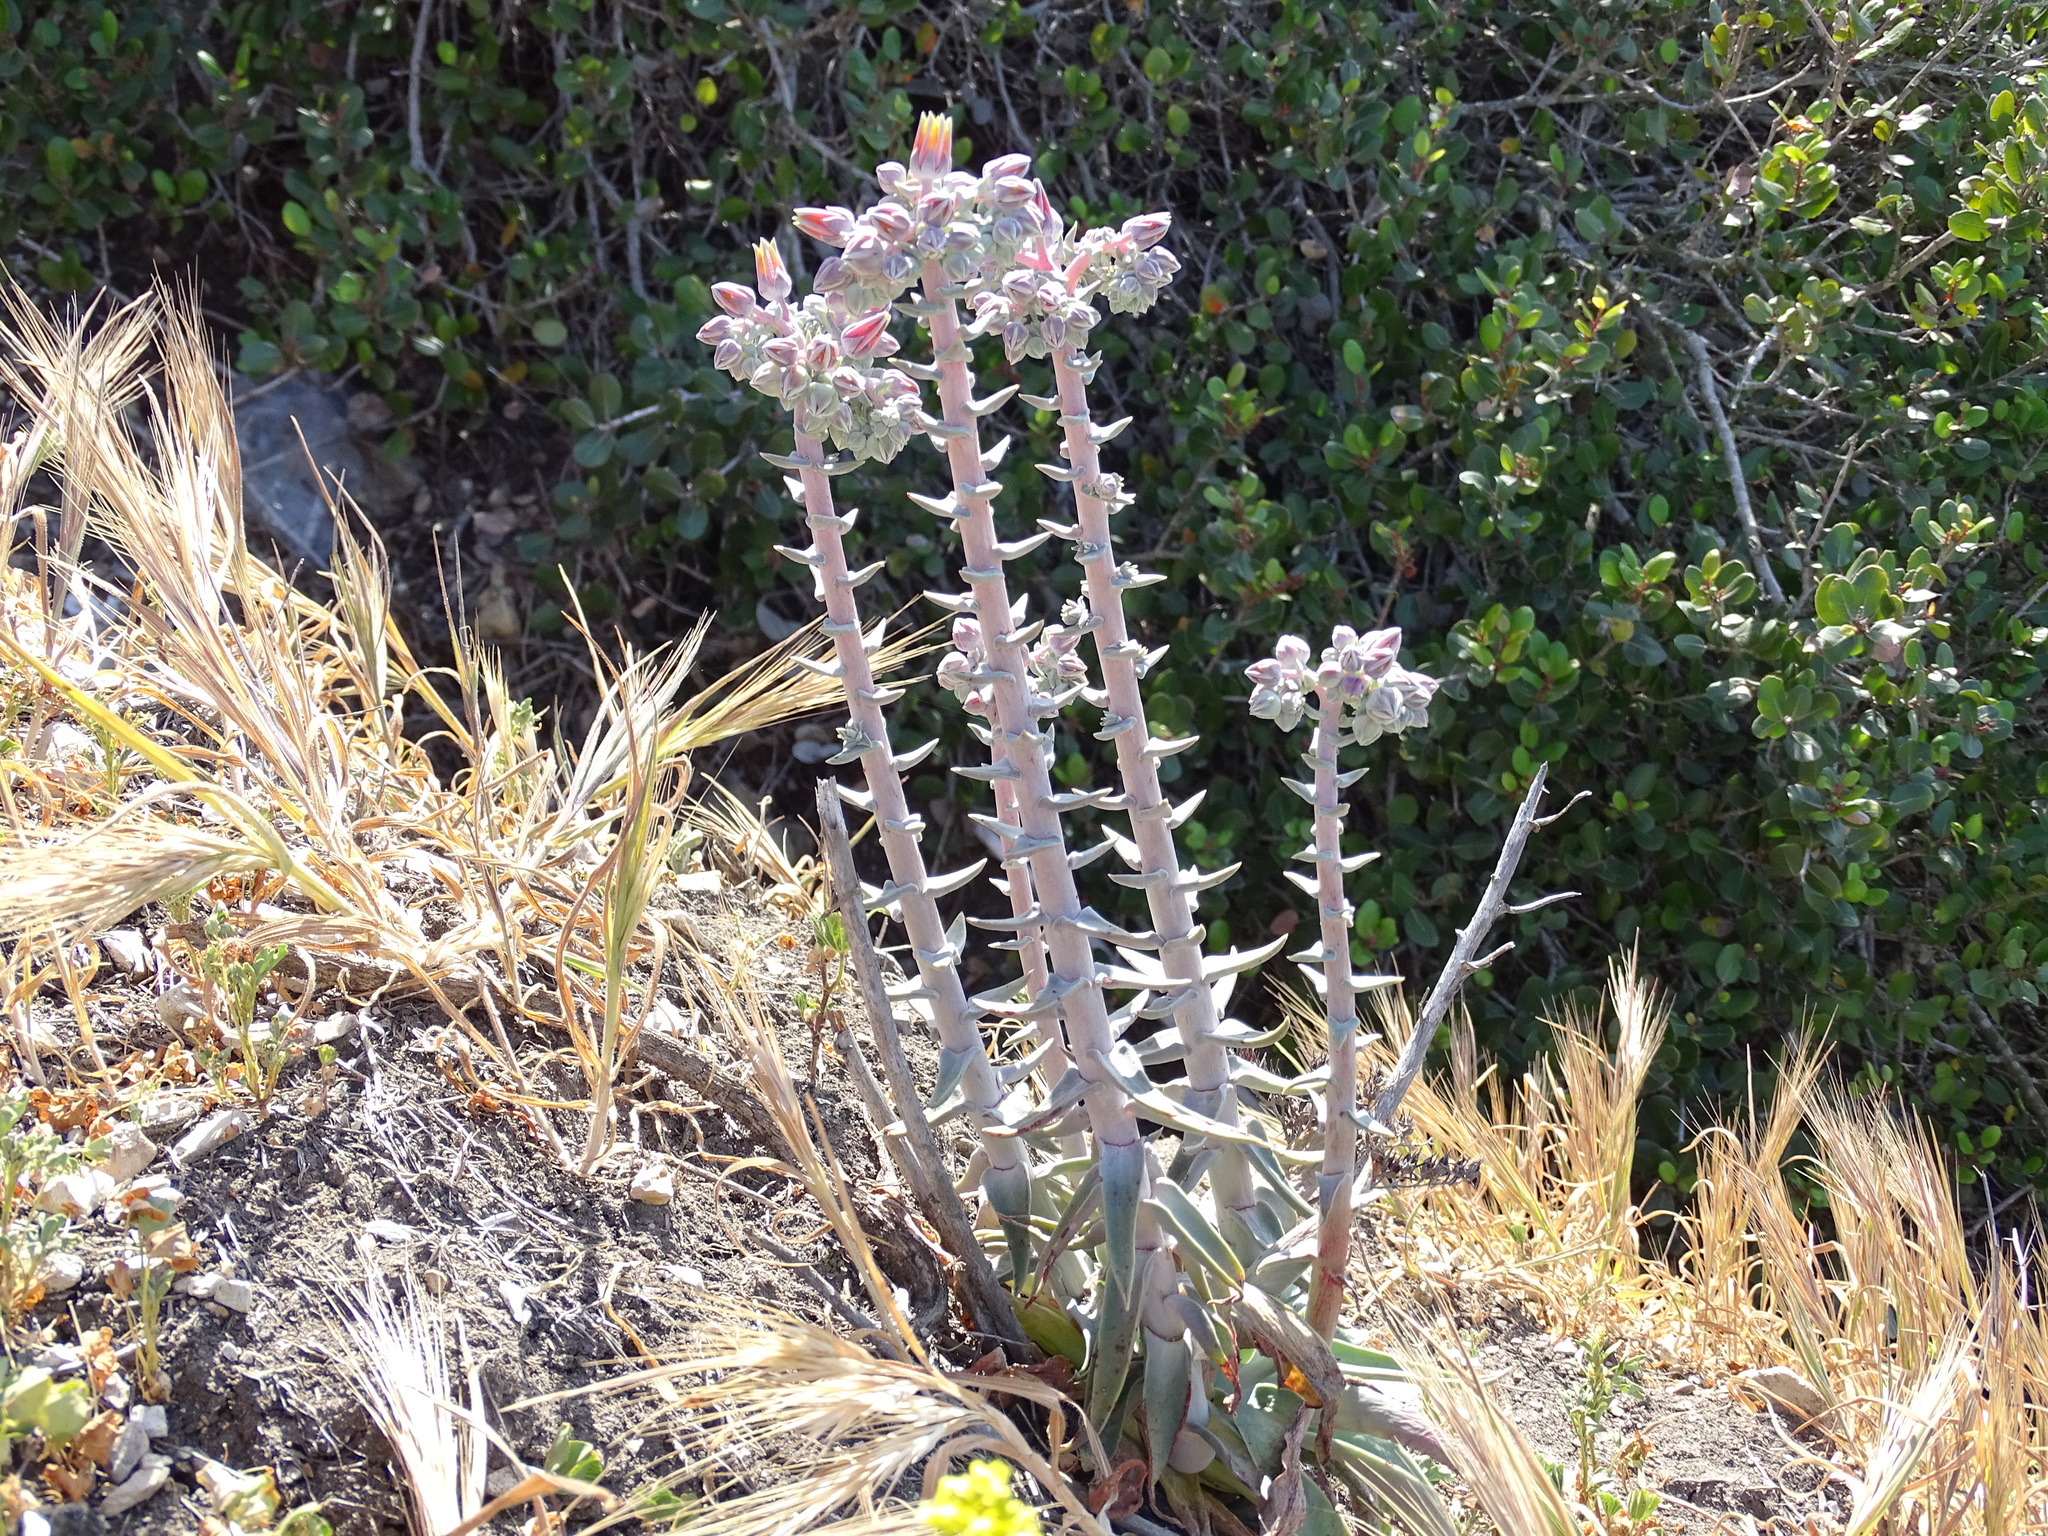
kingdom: Plantae
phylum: Tracheophyta
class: Magnoliopsida
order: Saxifragales
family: Crassulaceae
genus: Dudleya
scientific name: Dudleya lanceolata
